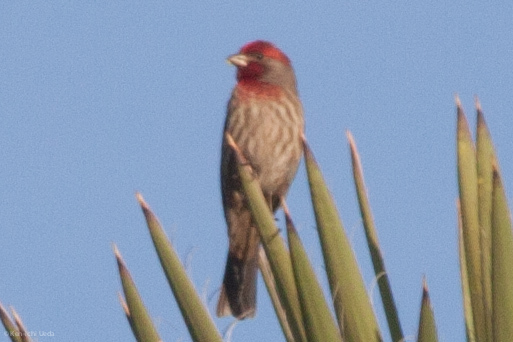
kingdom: Animalia
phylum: Chordata
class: Aves
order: Passeriformes
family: Fringillidae
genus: Haemorhous
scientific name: Haemorhous mexicanus
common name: House finch
